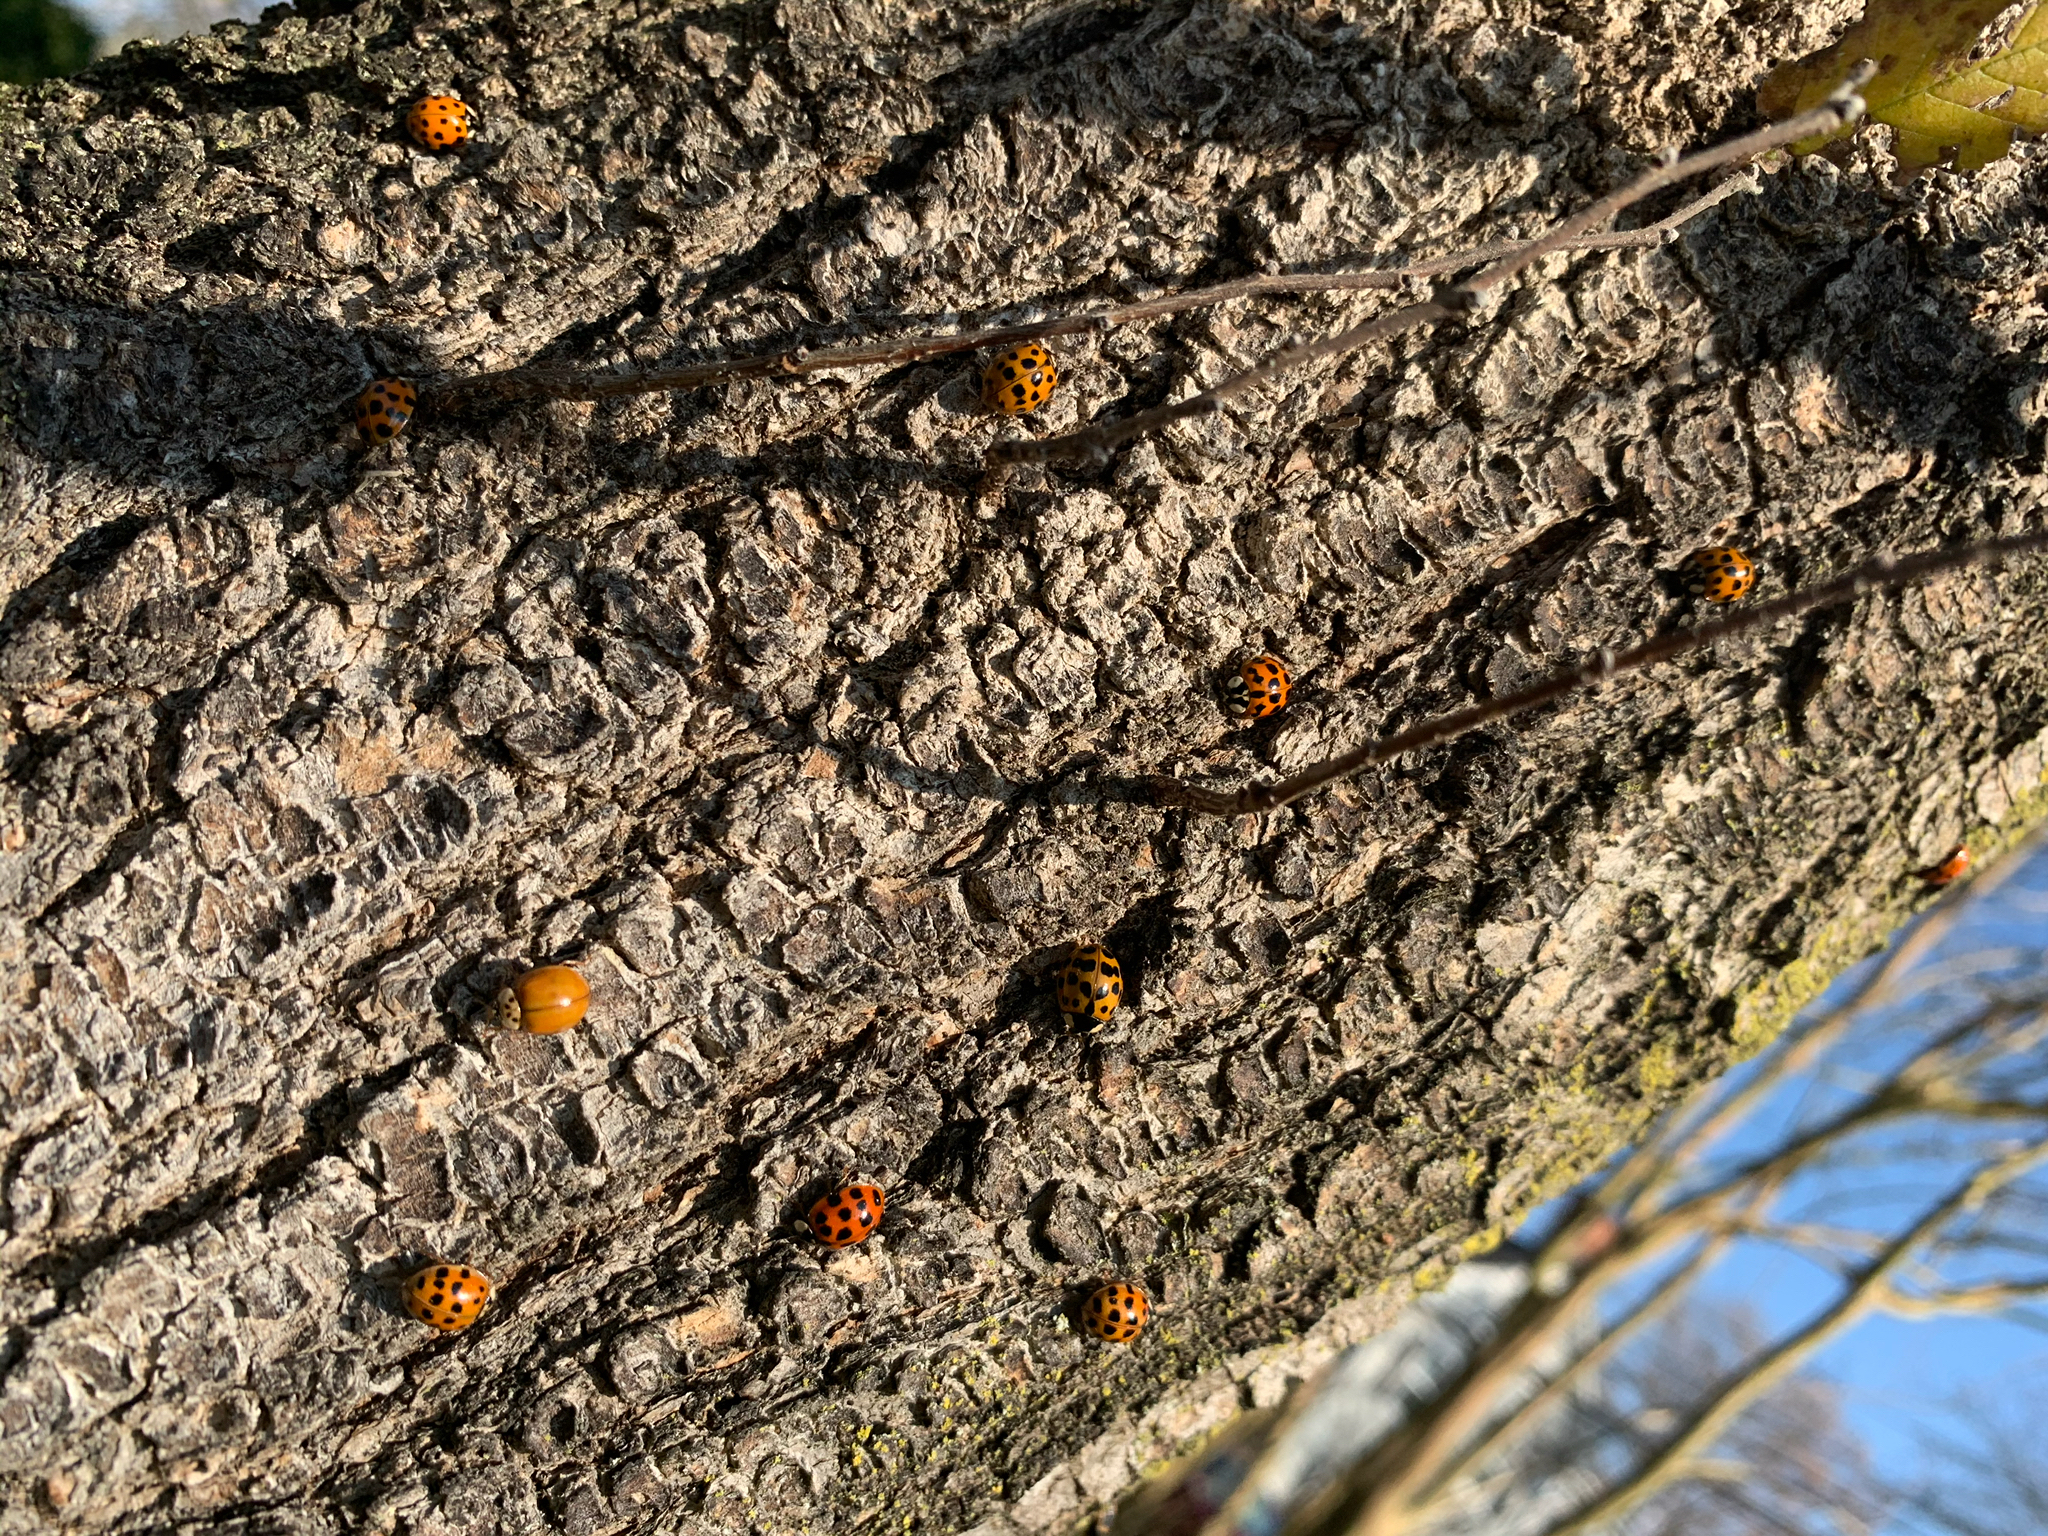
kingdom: Animalia
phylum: Arthropoda
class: Insecta
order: Coleoptera
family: Coccinellidae
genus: Harmonia
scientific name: Harmonia axyridis
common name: Harlequin ladybird
